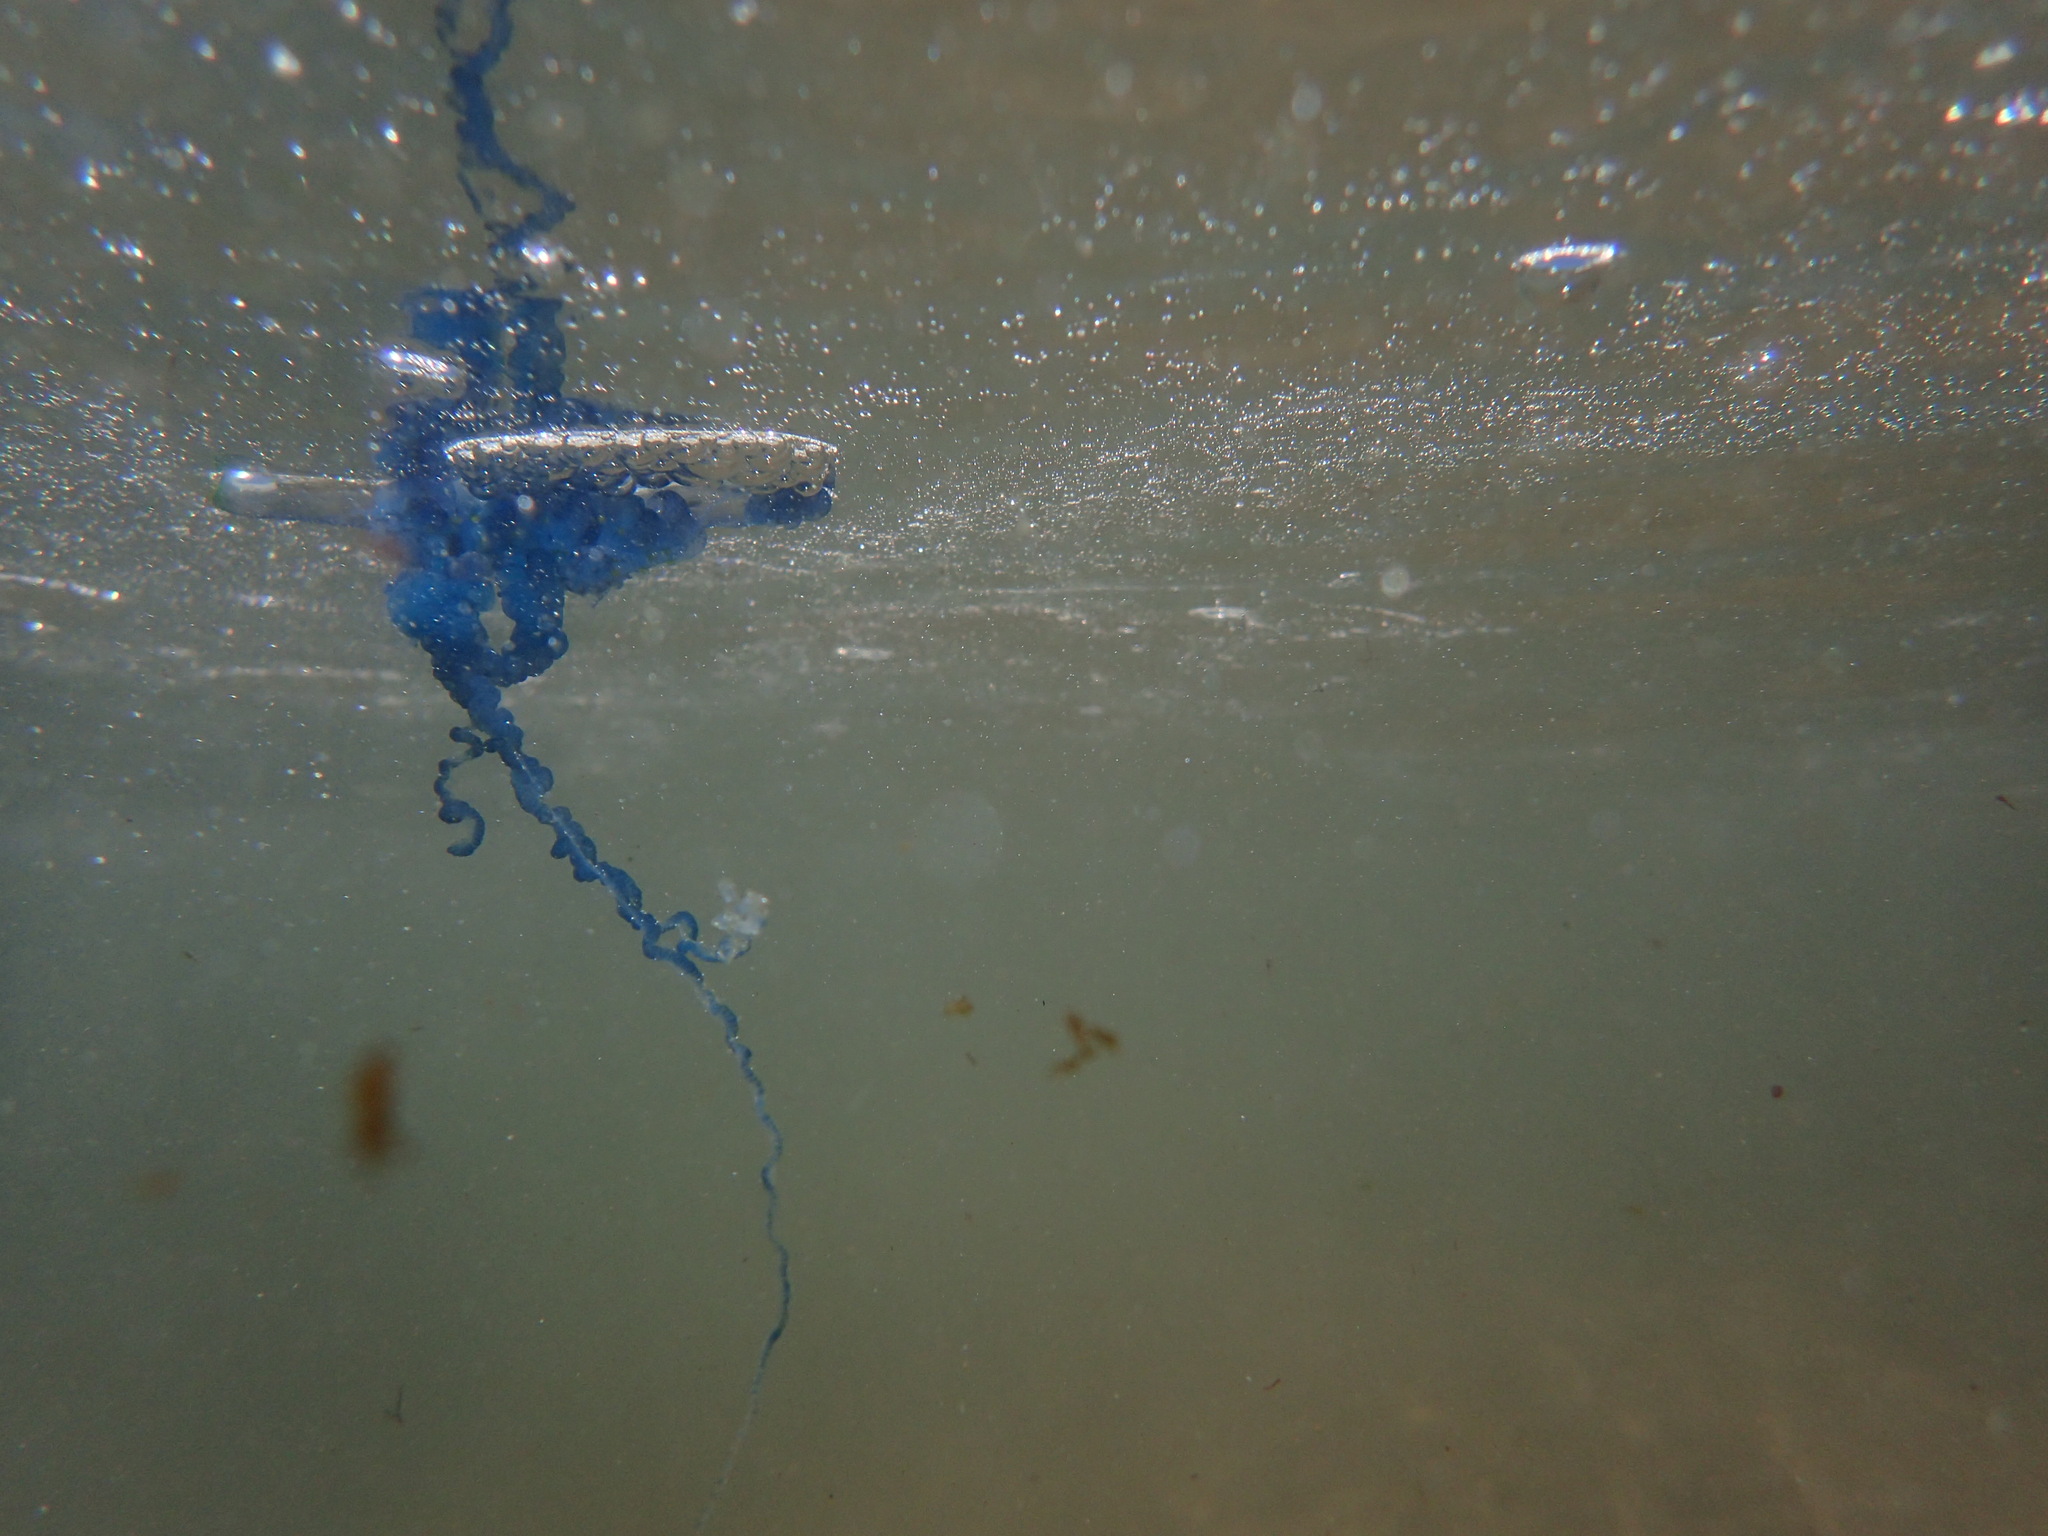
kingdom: Animalia
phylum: Cnidaria
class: Hydrozoa
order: Siphonophorae
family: Physaliidae
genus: Physalia
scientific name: Physalia physalis
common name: Portuguese man-of-war
